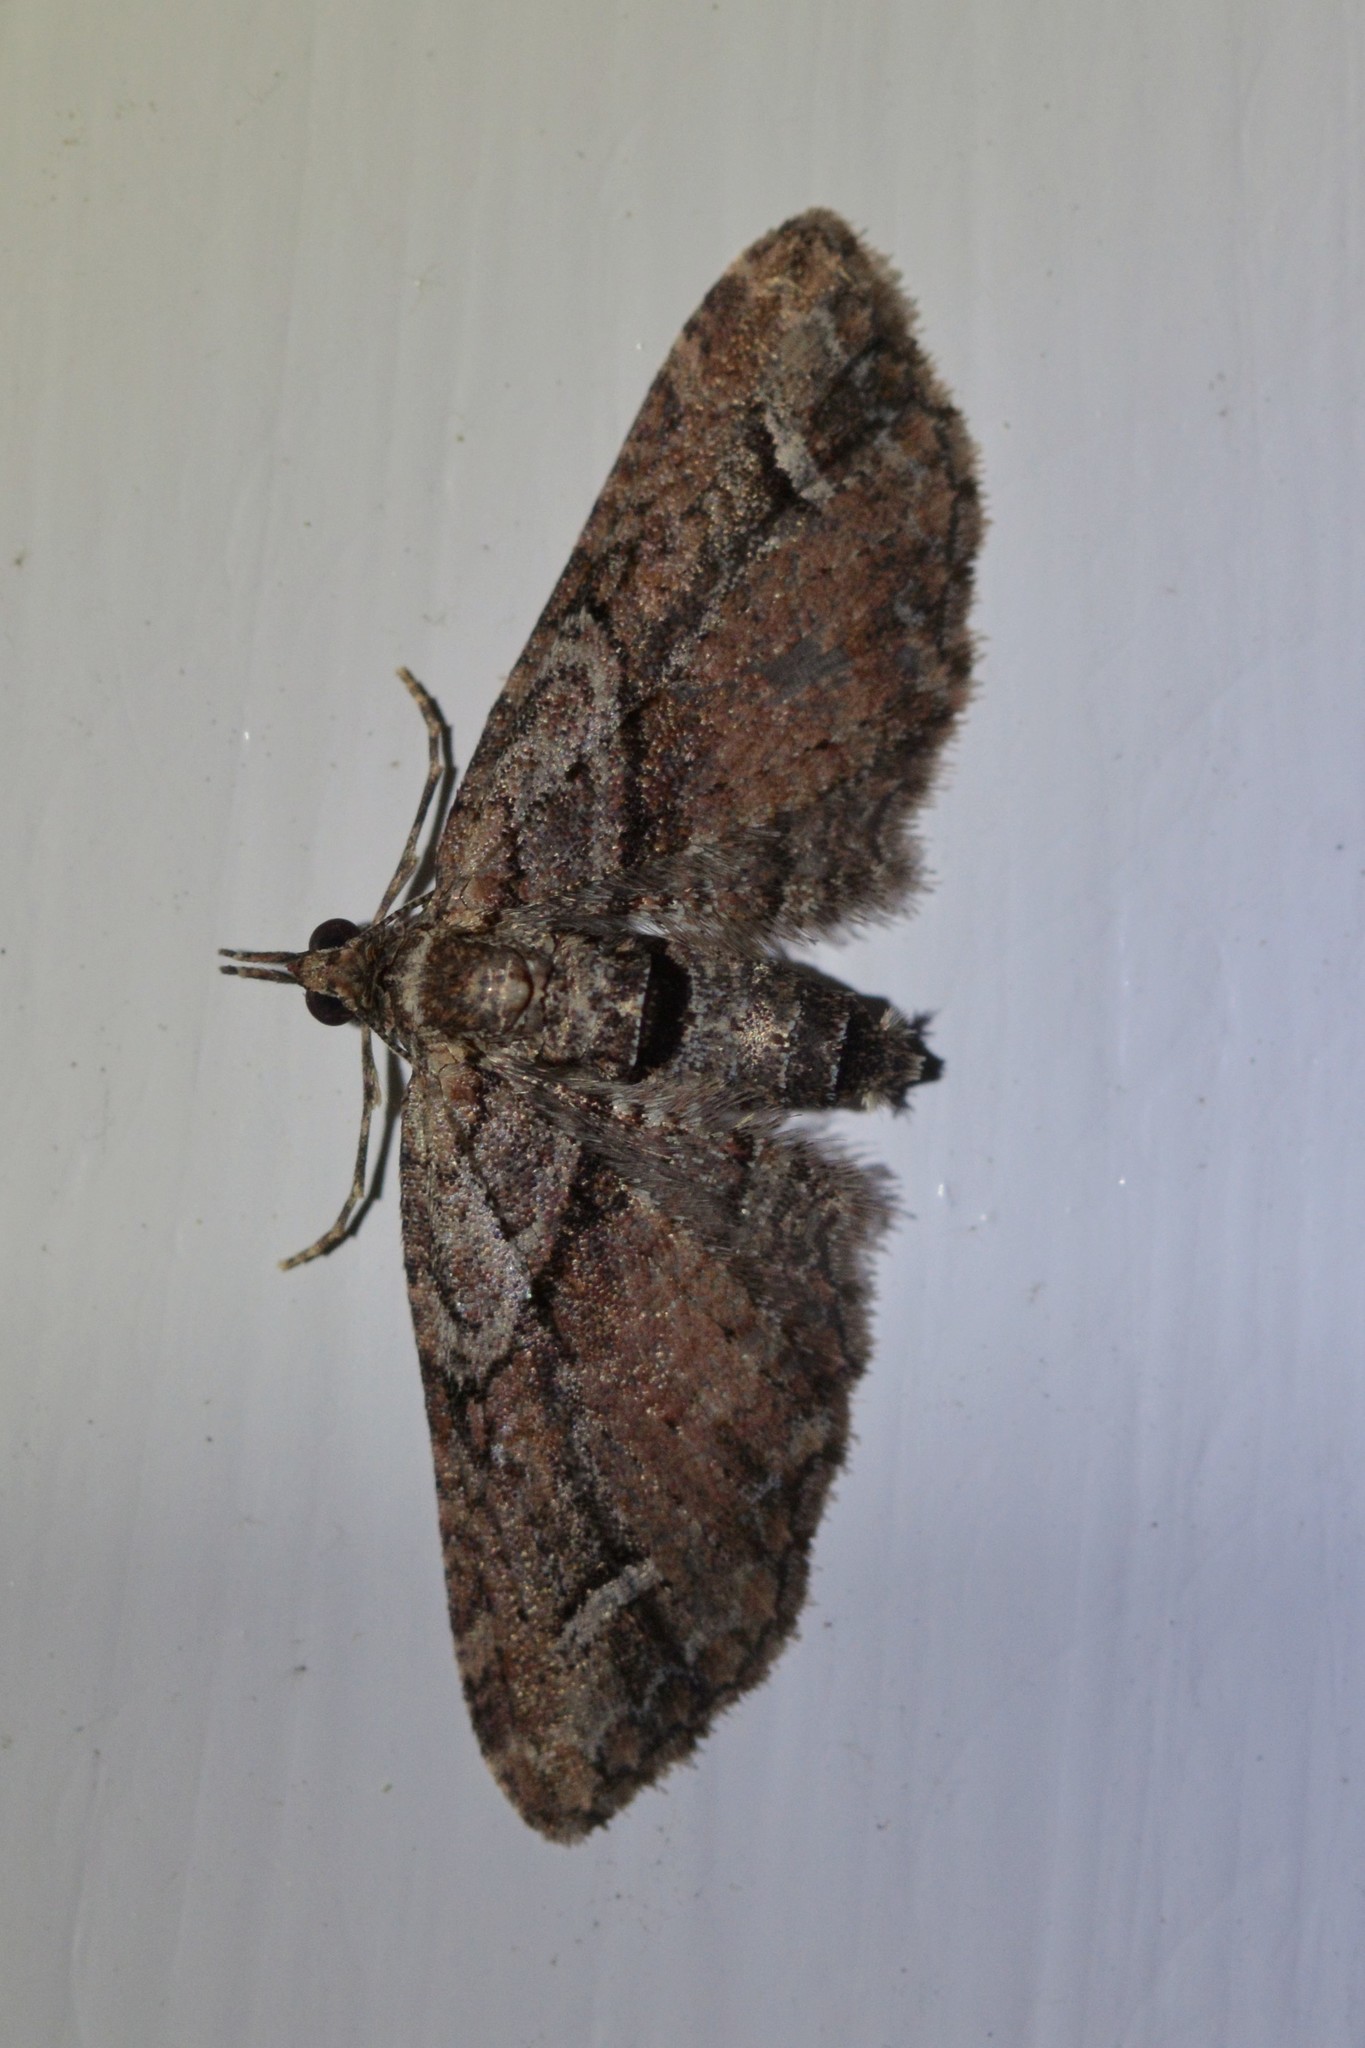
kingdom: Animalia
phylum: Arthropoda
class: Insecta
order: Lepidoptera
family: Geometridae
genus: Idaea
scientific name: Idaea mutanda
